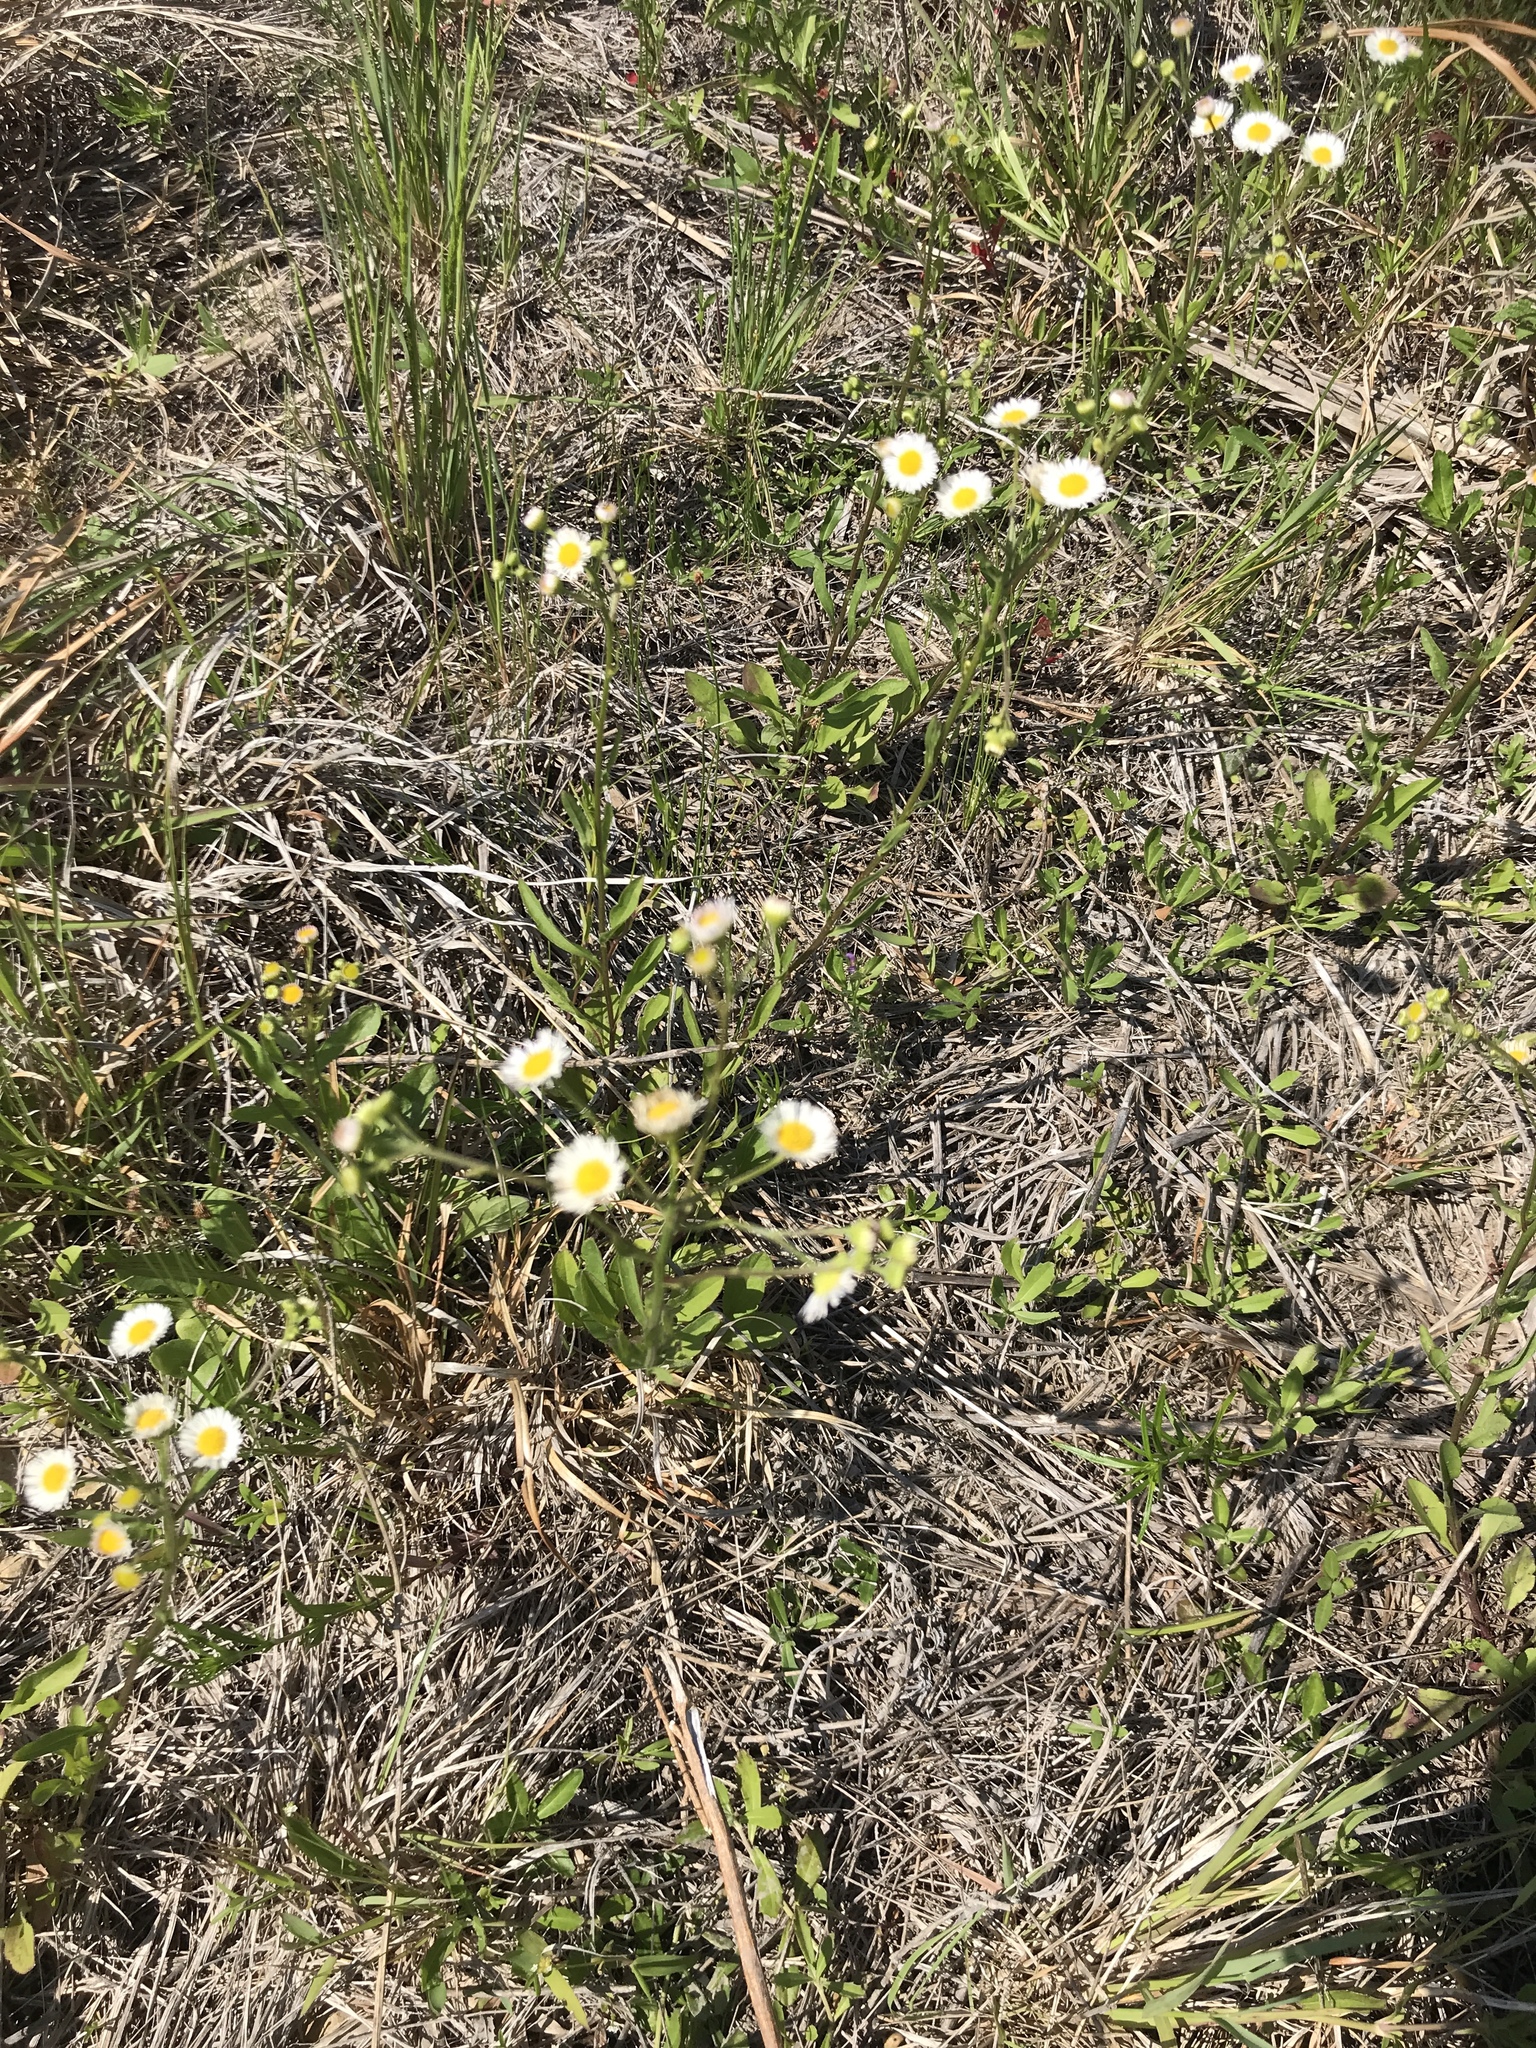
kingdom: Plantae
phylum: Tracheophyta
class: Magnoliopsida
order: Asterales
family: Asteraceae
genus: Erigeron
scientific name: Erigeron strigosus
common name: Common eastern fleabane
